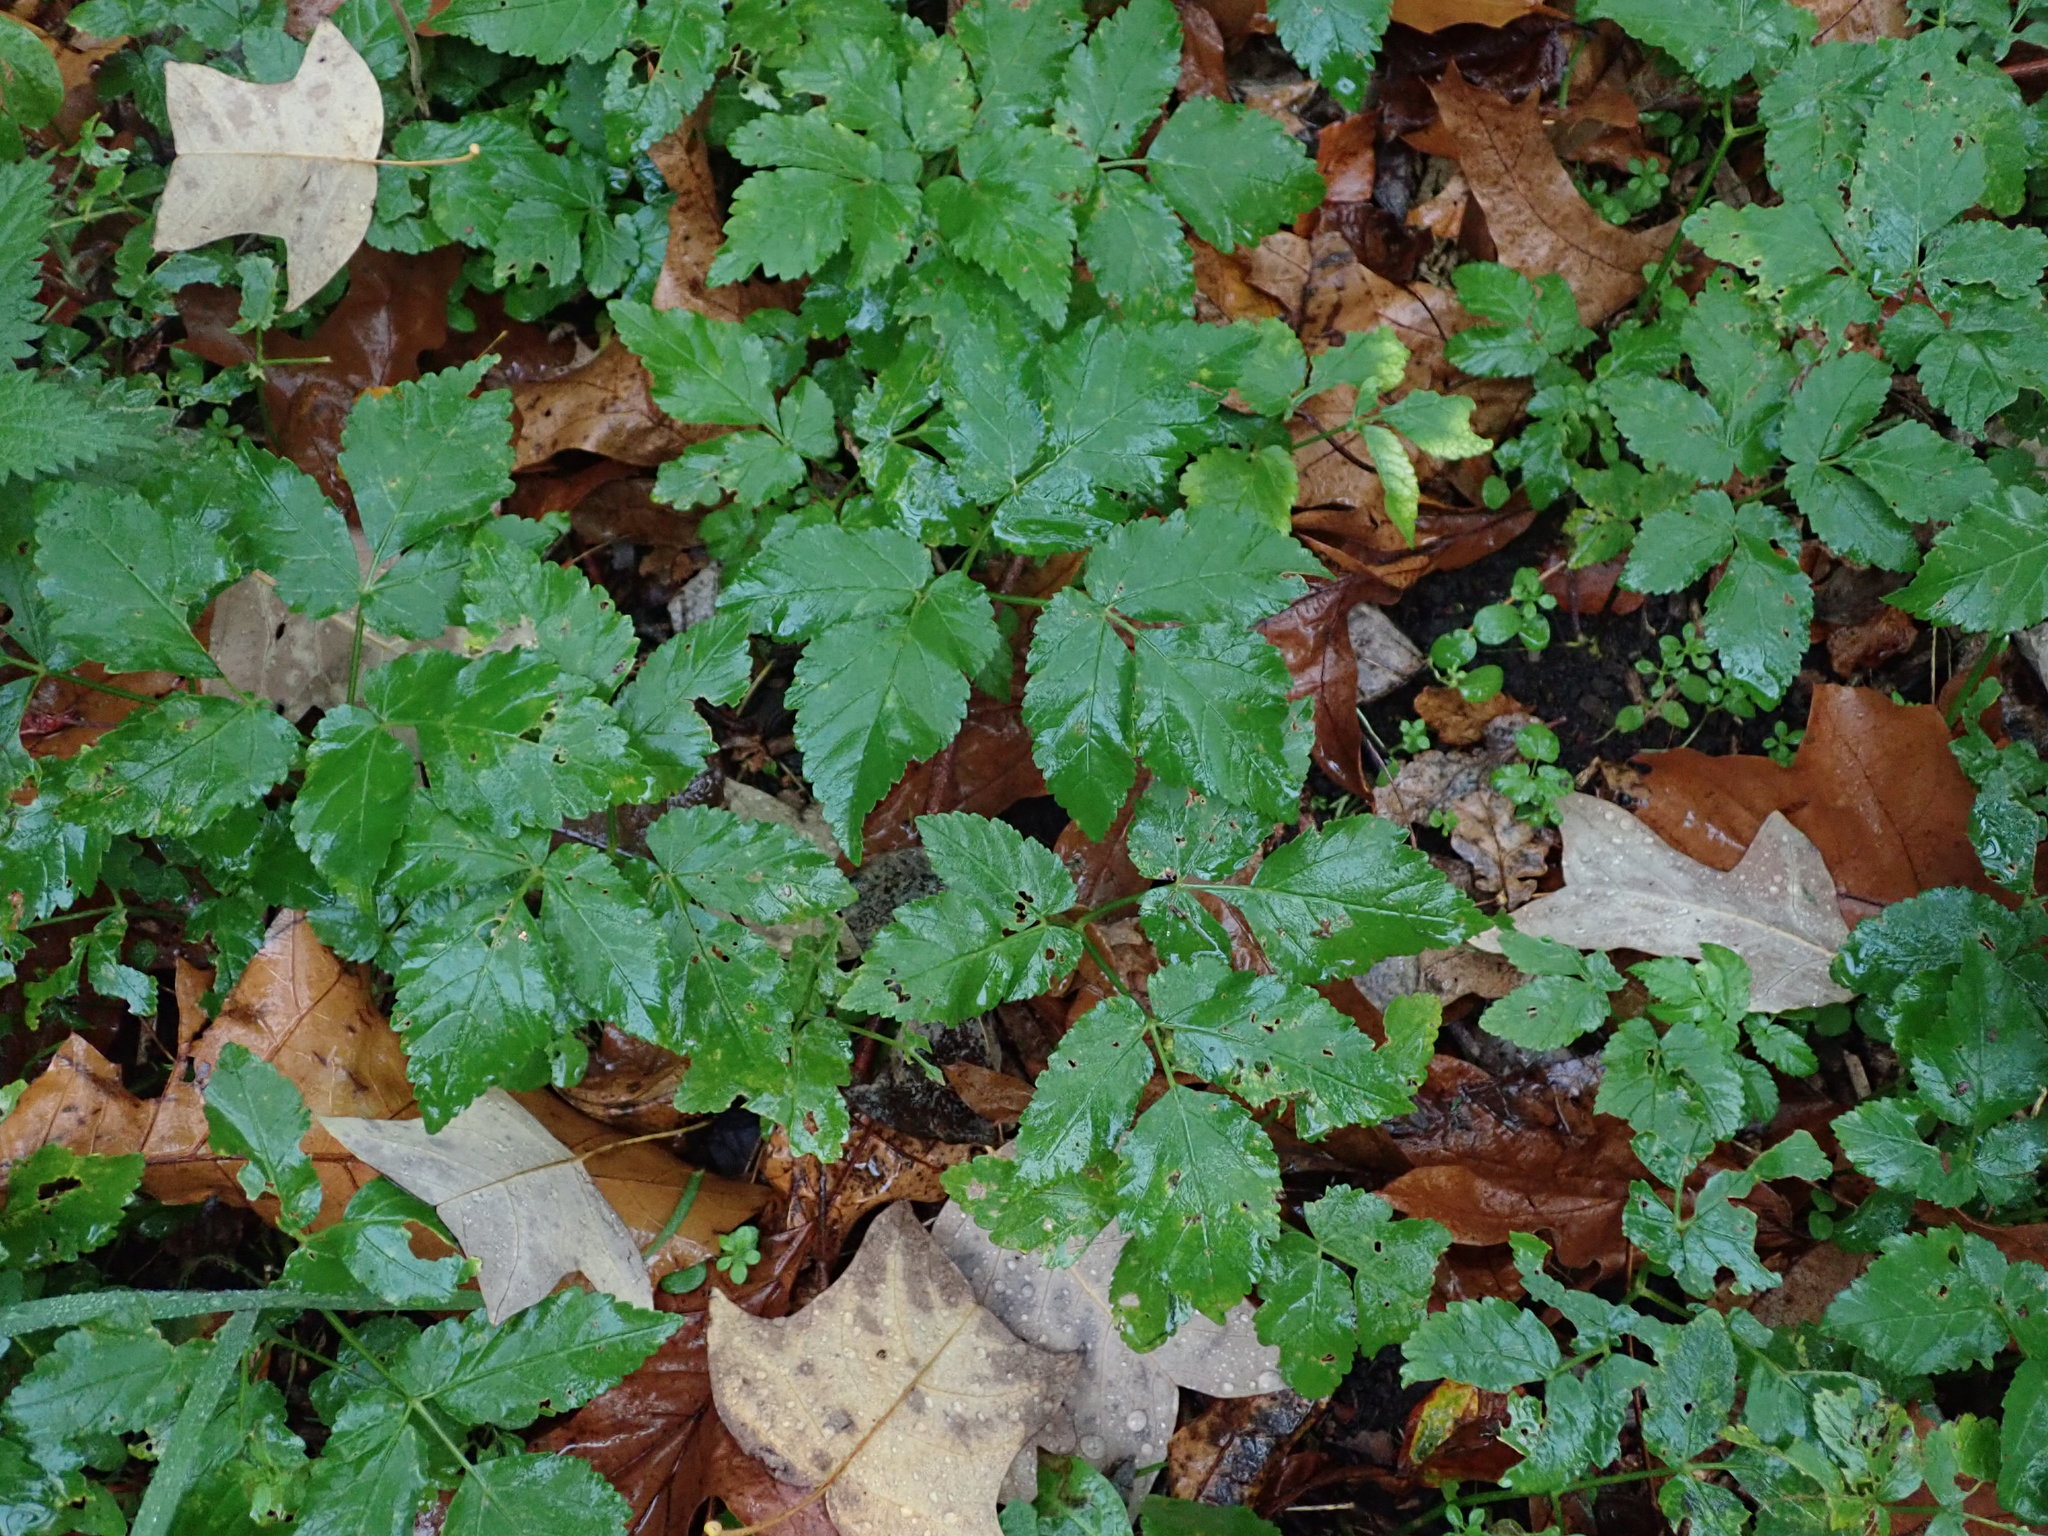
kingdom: Plantae
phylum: Tracheophyta
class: Magnoliopsida
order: Apiales
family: Apiaceae
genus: Aegopodium
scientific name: Aegopodium podagraria
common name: Ground-elder
